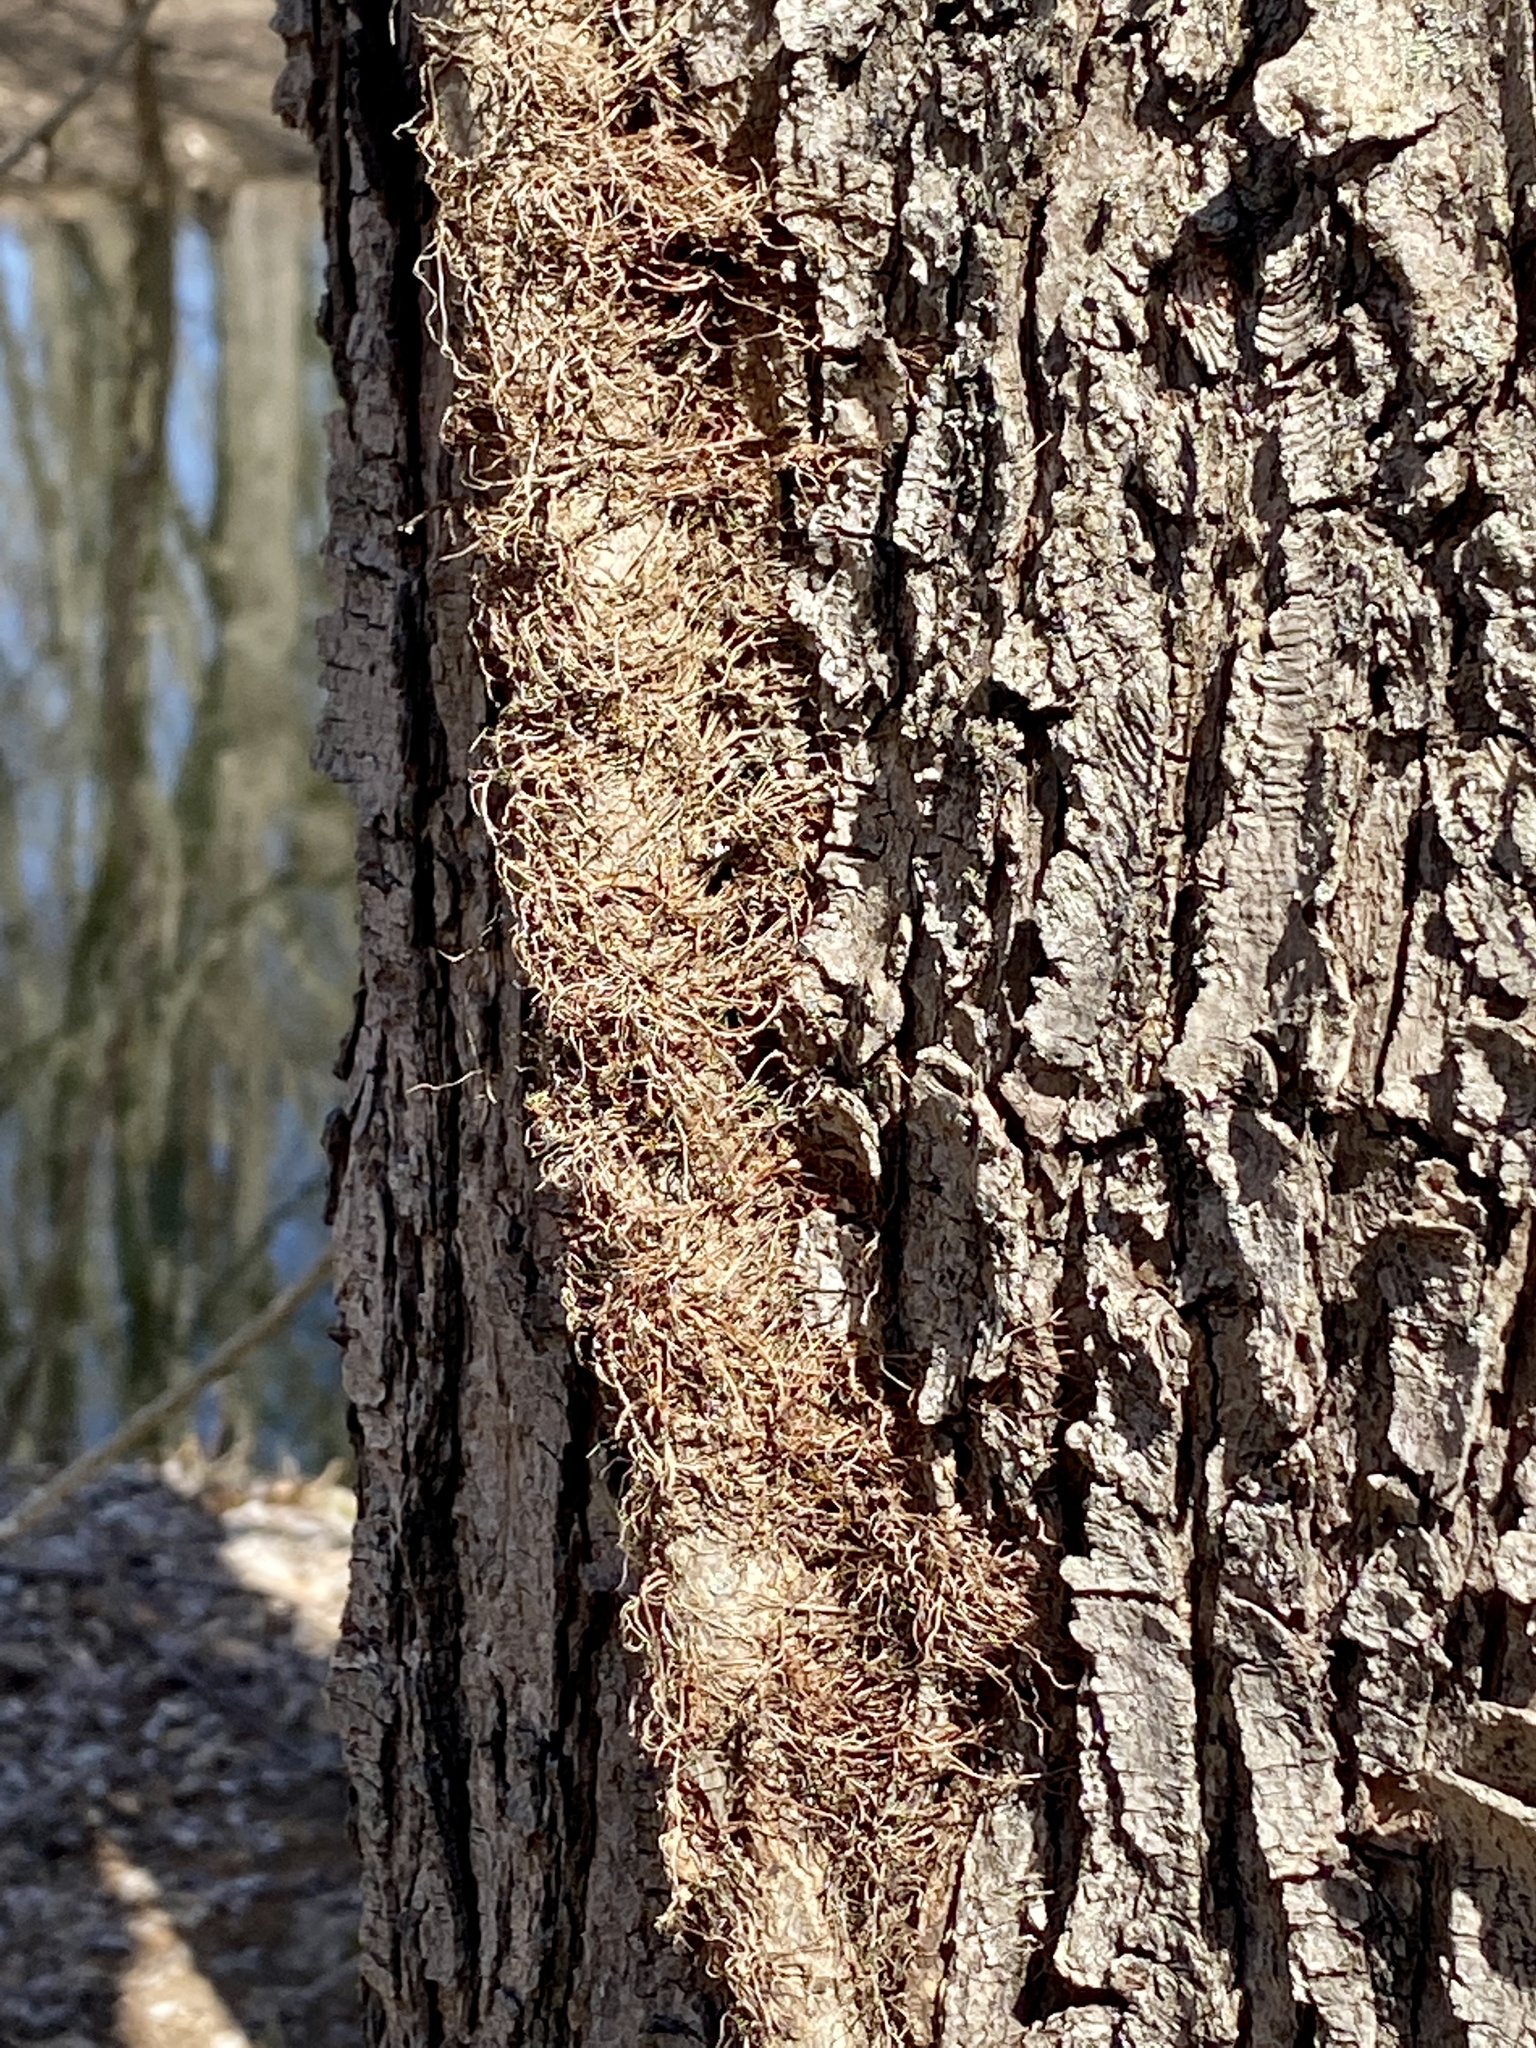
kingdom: Plantae
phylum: Tracheophyta
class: Magnoliopsida
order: Sapindales
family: Anacardiaceae
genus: Toxicodendron
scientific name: Toxicodendron radicans
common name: Poison ivy
